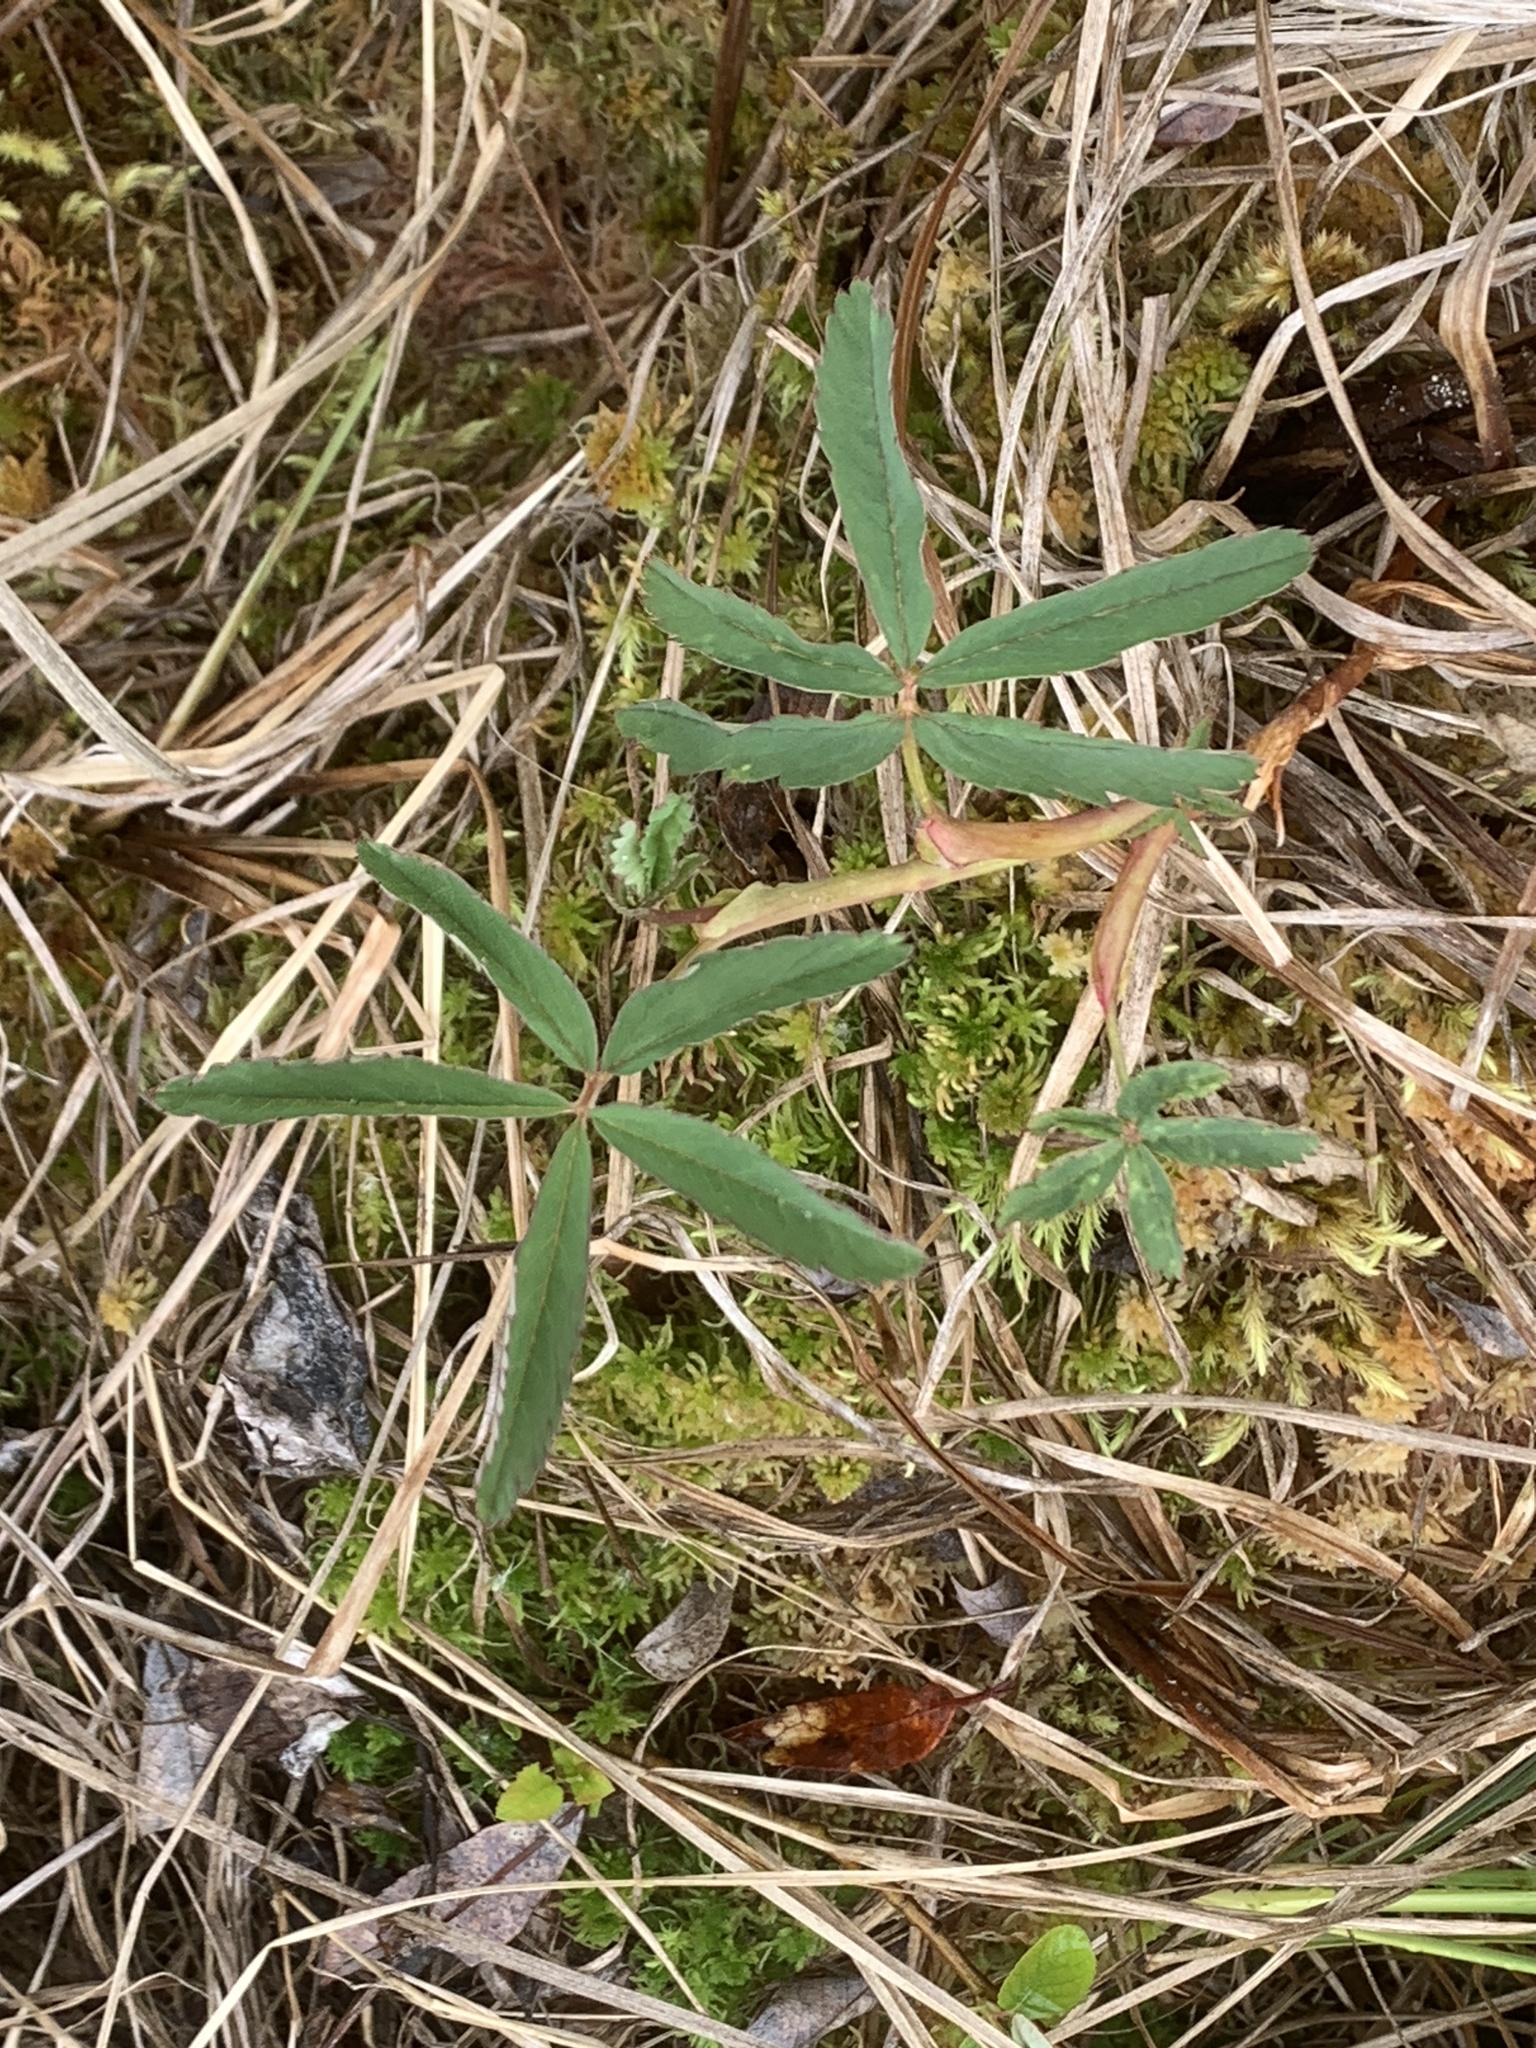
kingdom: Plantae
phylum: Tracheophyta
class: Magnoliopsida
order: Rosales
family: Rosaceae
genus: Comarum
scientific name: Comarum palustre
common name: Marsh cinquefoil
